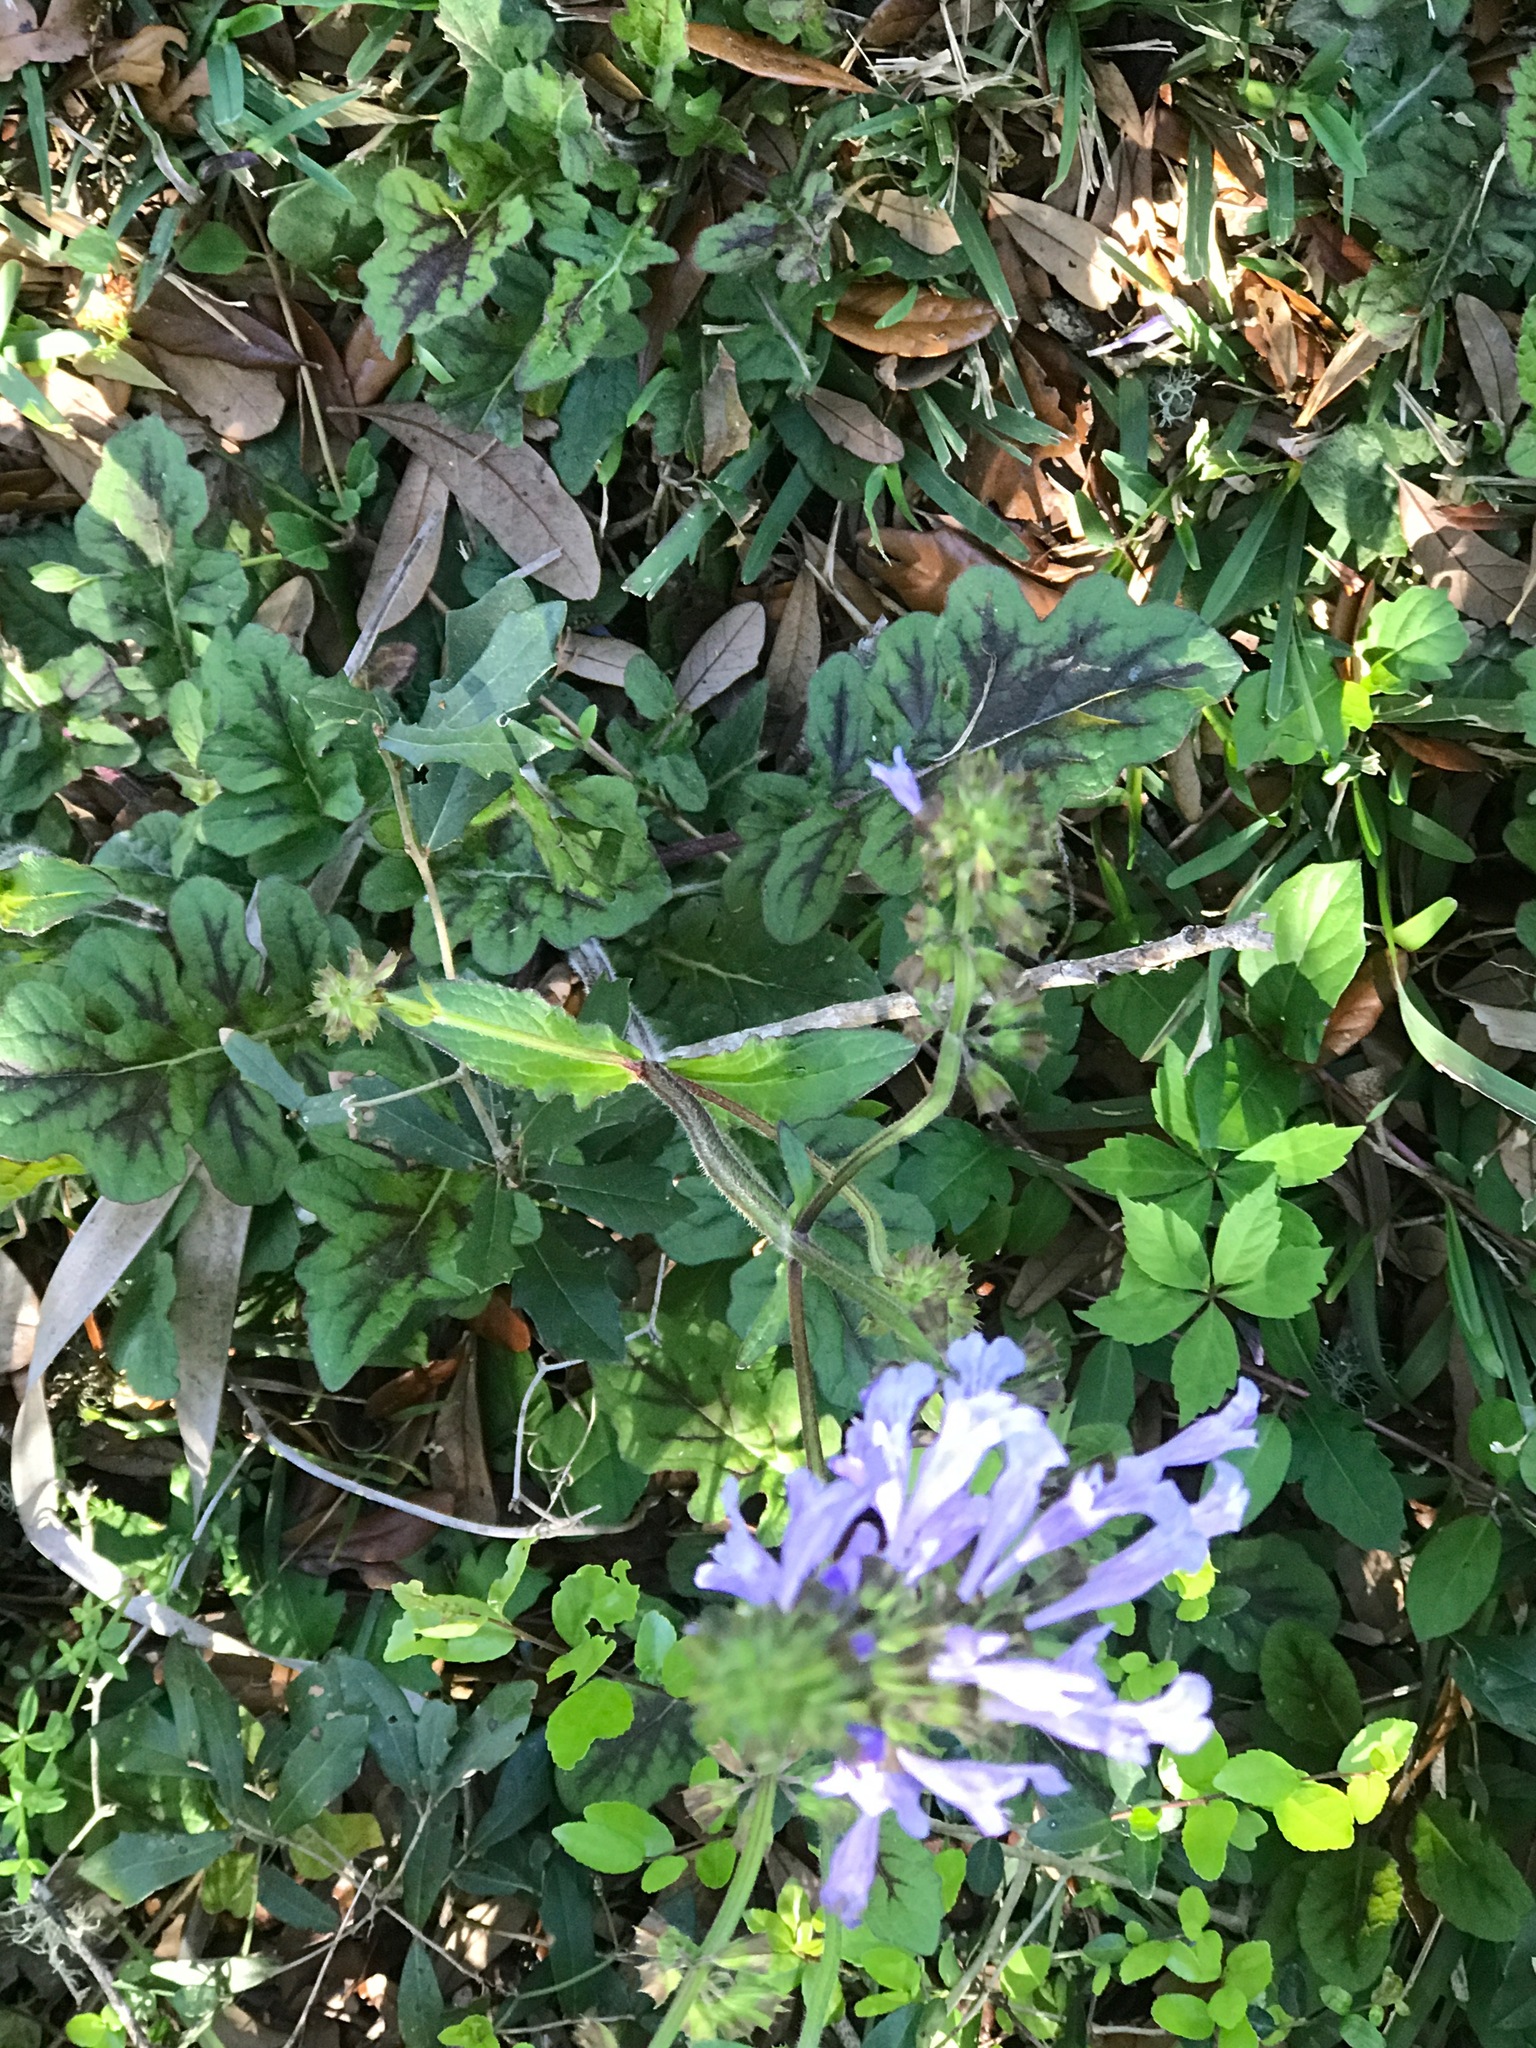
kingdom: Plantae
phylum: Tracheophyta
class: Magnoliopsida
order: Lamiales
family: Lamiaceae
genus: Salvia
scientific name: Salvia lyrata
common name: Cancerweed
